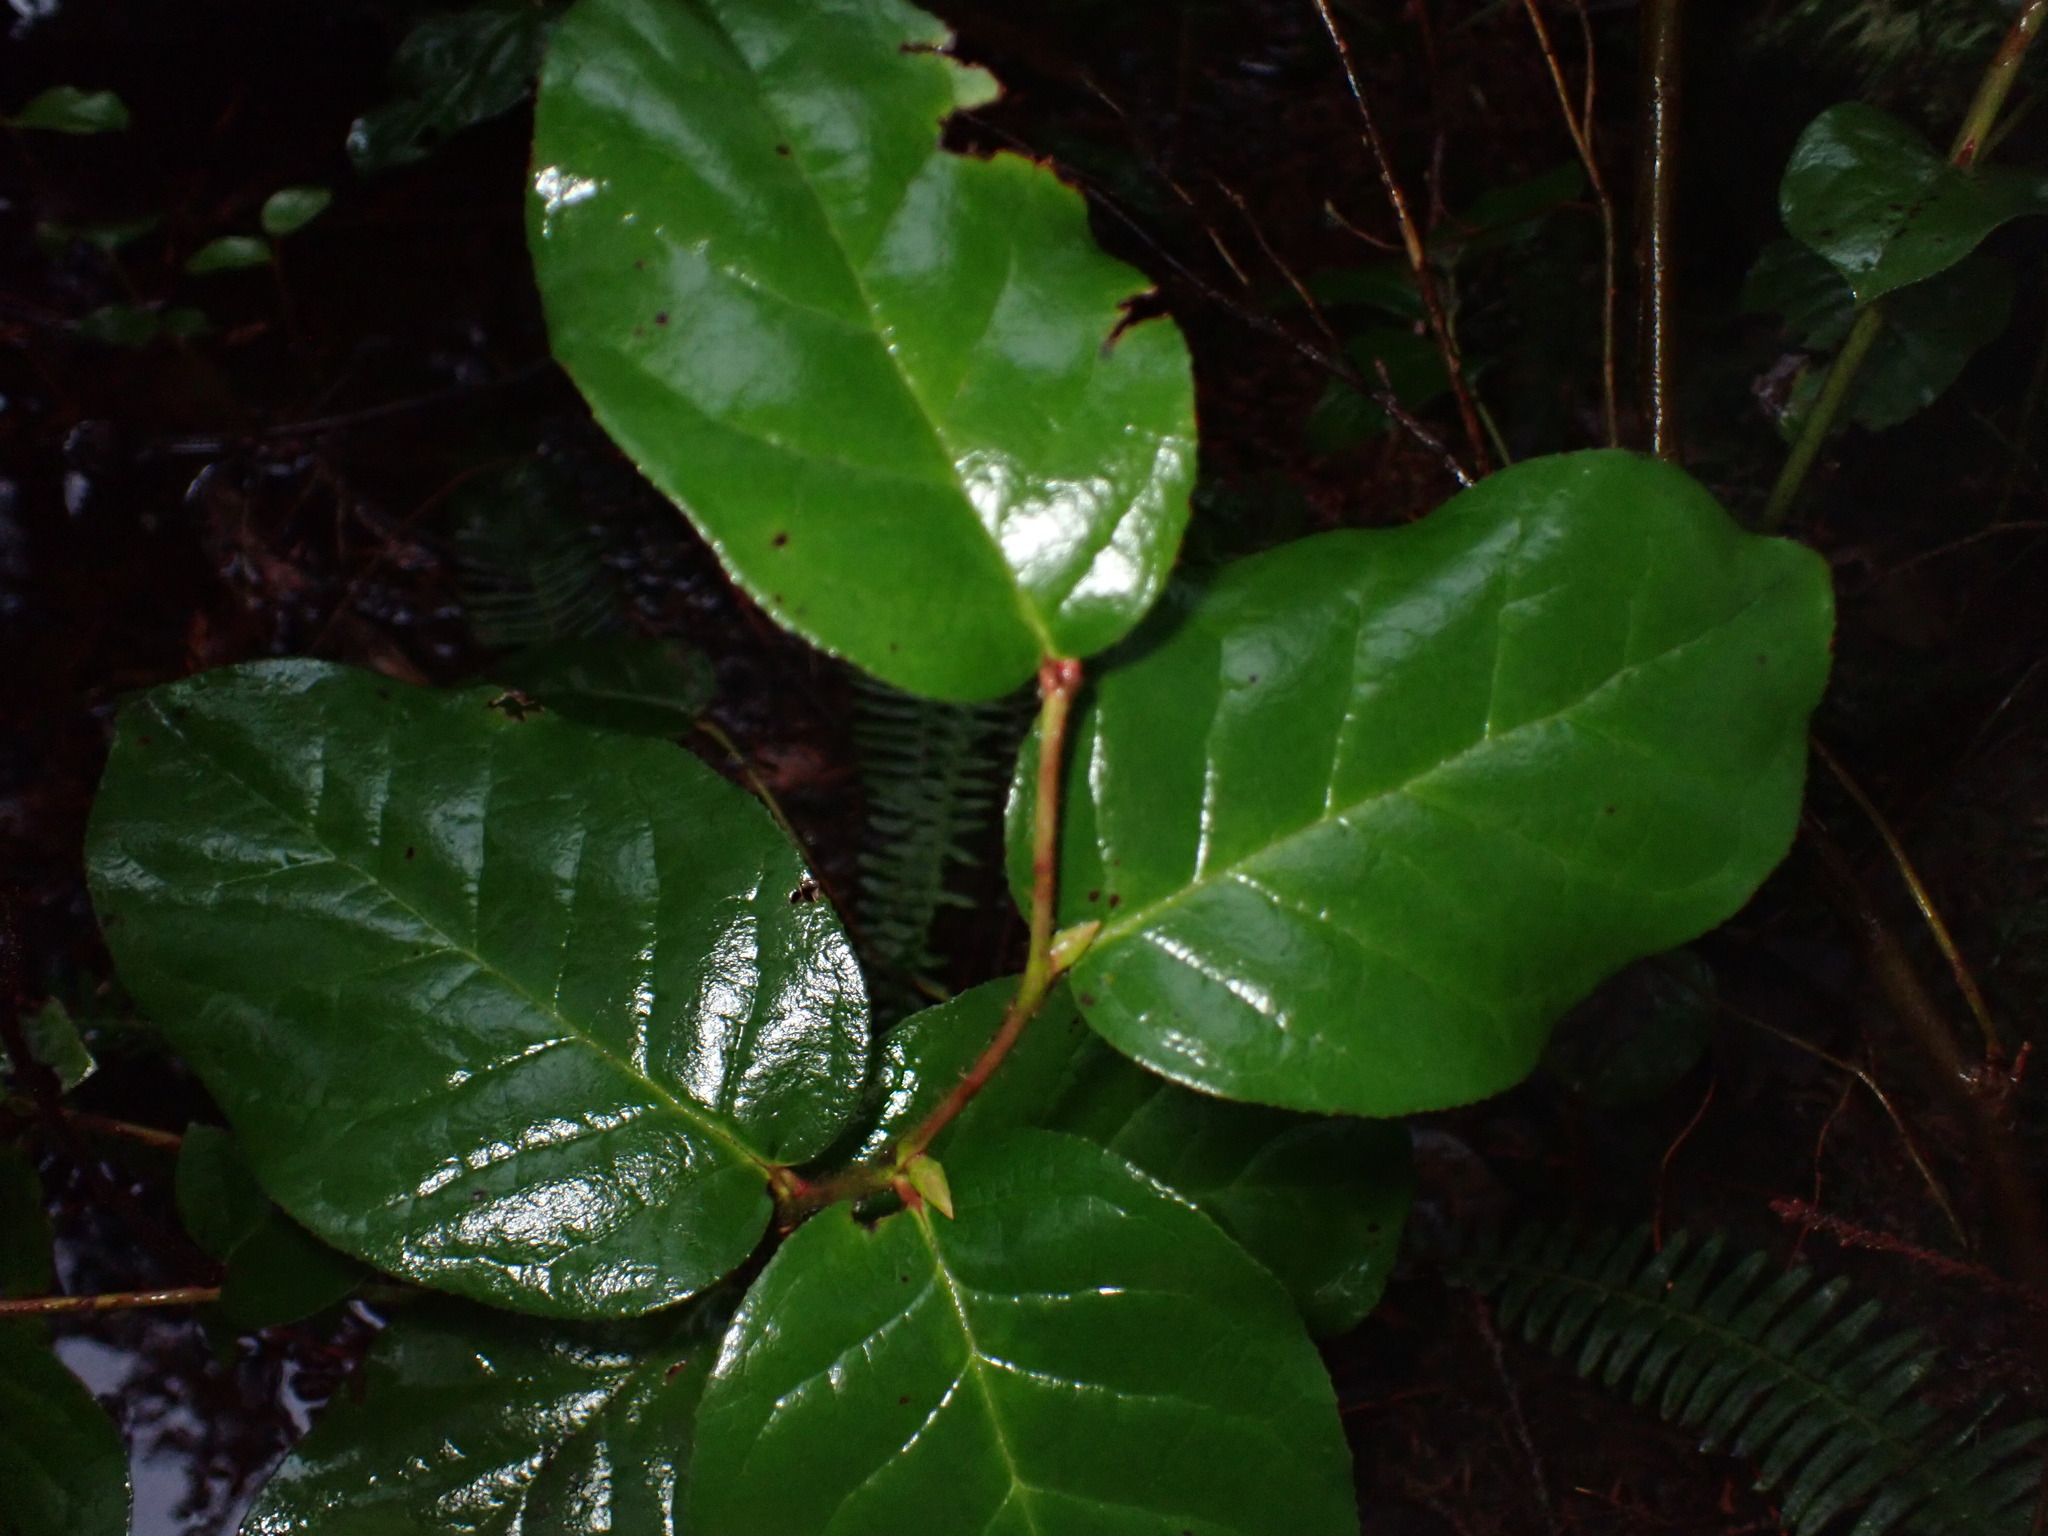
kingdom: Plantae
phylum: Tracheophyta
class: Magnoliopsida
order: Ericales
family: Ericaceae
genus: Gaultheria
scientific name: Gaultheria shallon
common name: Shallon
